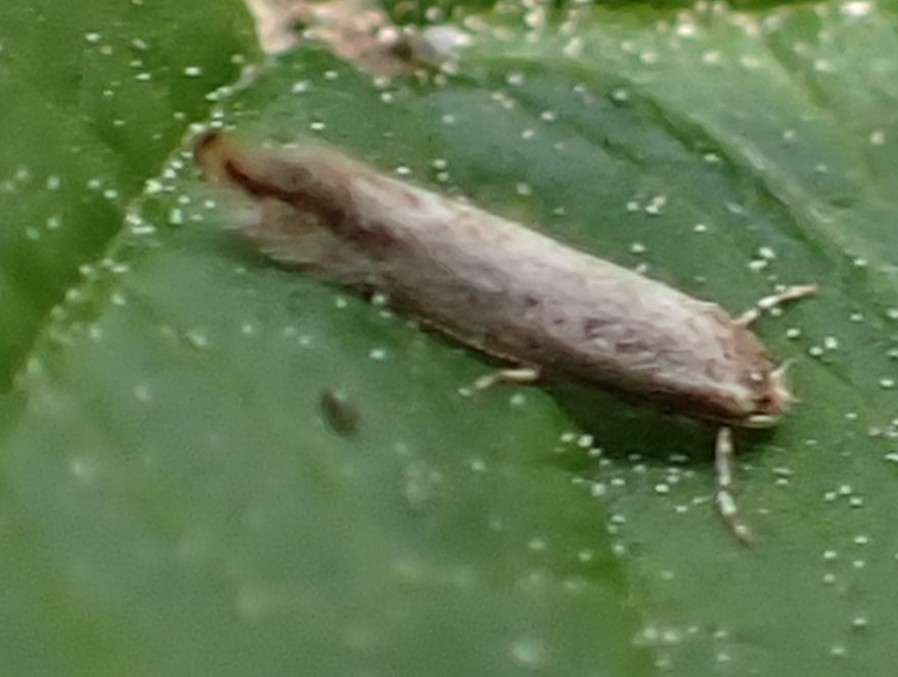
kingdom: Animalia
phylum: Arthropoda
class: Insecta
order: Lepidoptera
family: Gracillariidae
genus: Phyllonorycter
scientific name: Phyllonorycter issikii
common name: Linden midget
